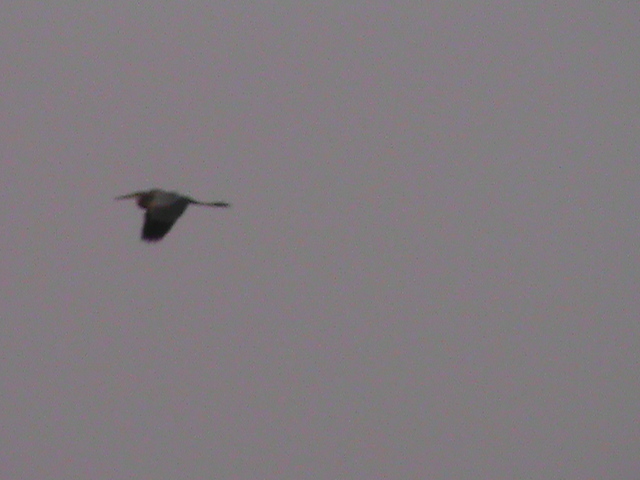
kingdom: Animalia
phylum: Chordata
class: Aves
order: Pelecaniformes
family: Ardeidae
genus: Ardea
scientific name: Ardea purpurea
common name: Purple heron
